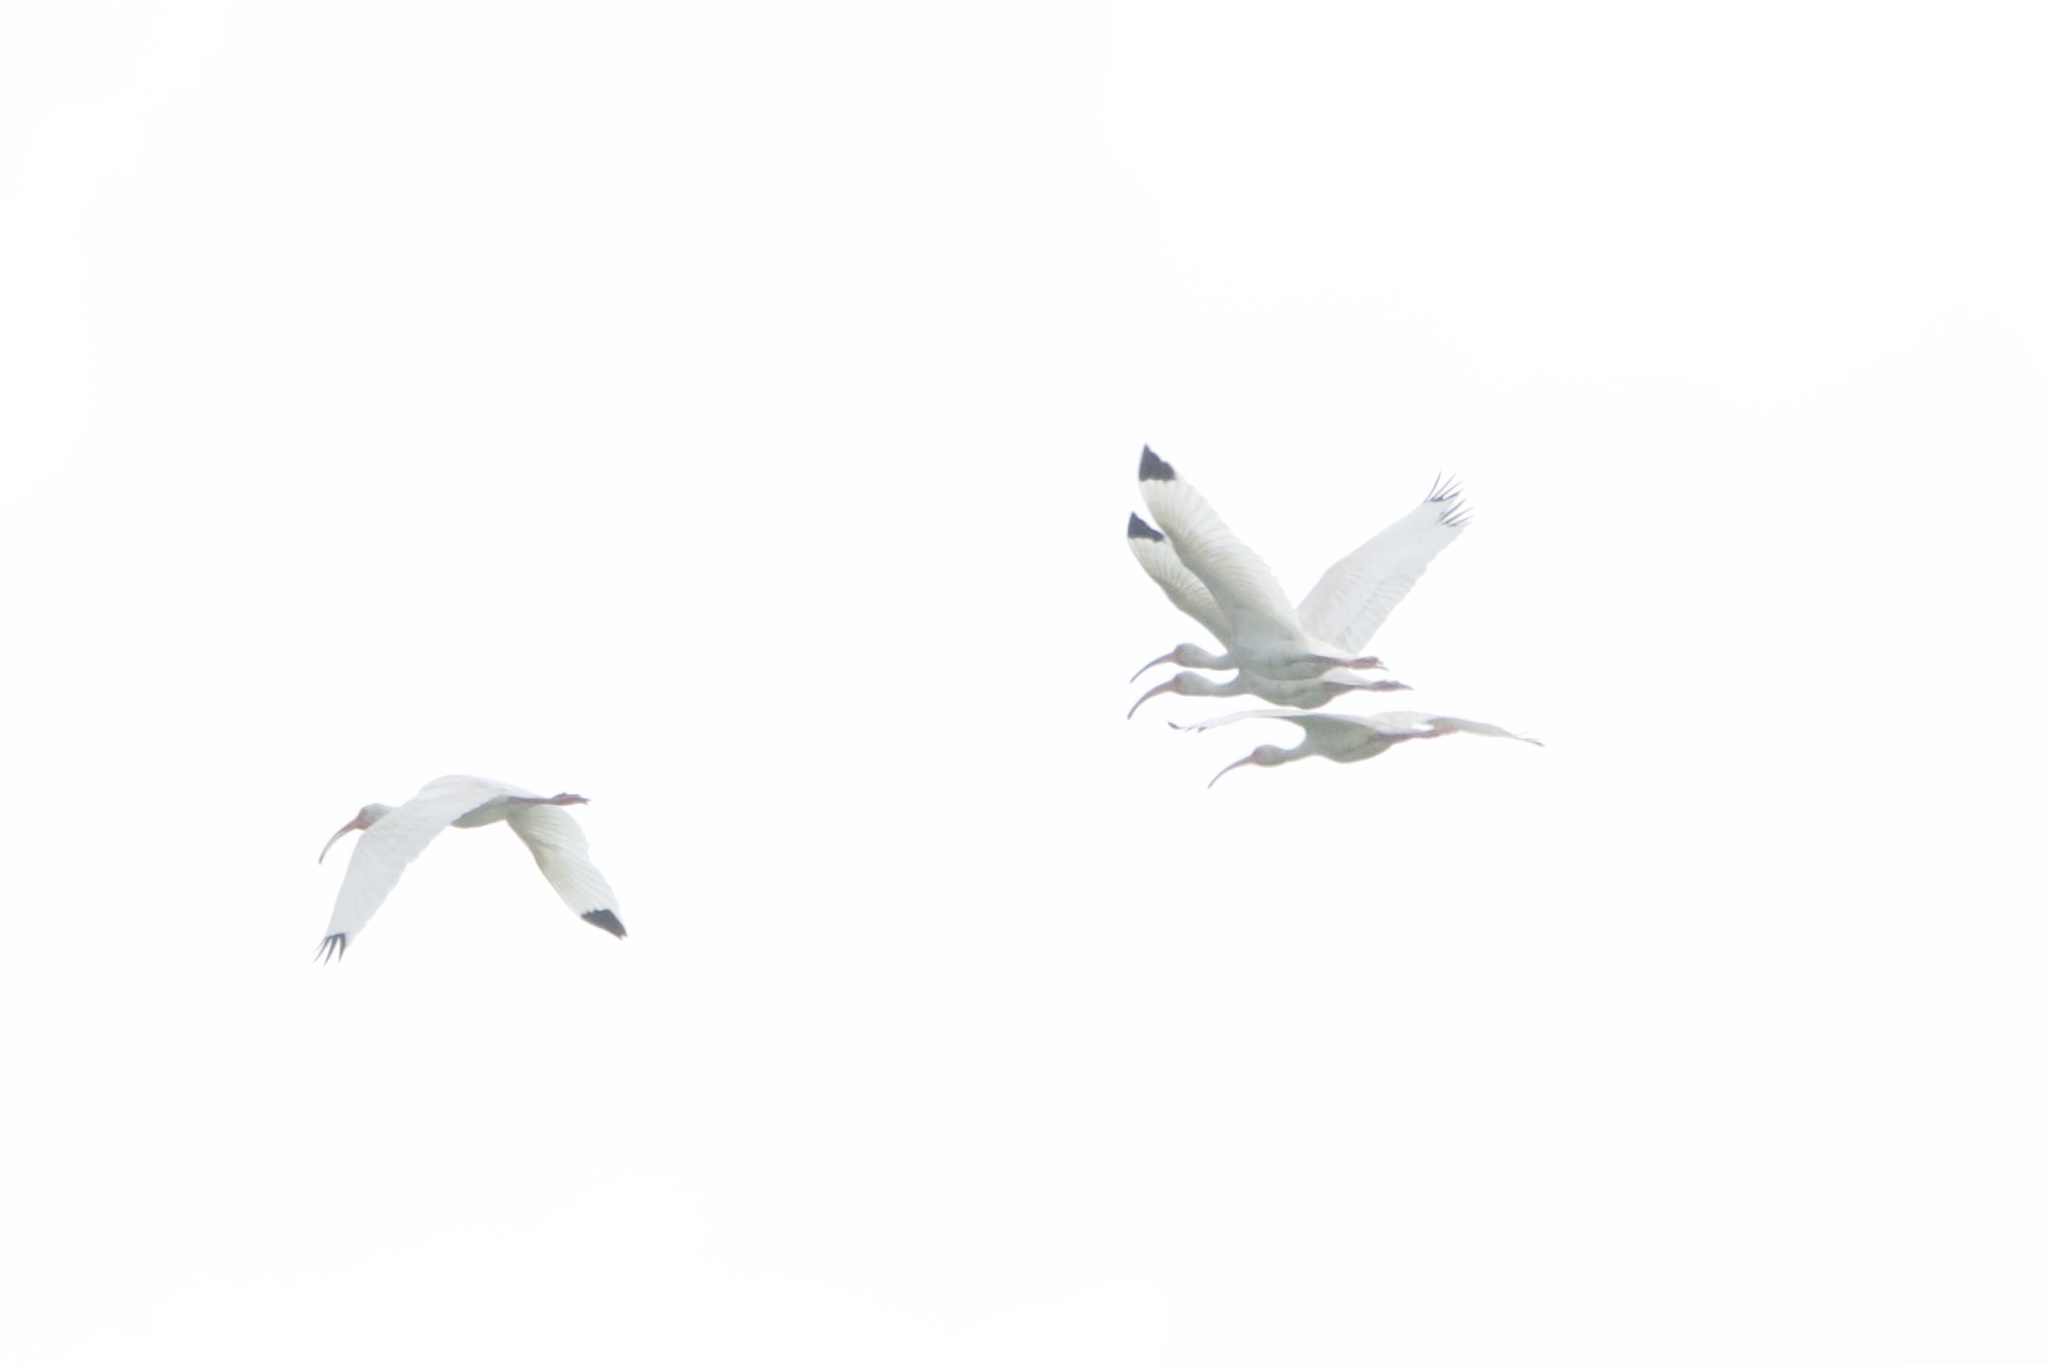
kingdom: Animalia
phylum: Chordata
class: Aves
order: Pelecaniformes
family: Threskiornithidae
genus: Eudocimus
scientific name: Eudocimus albus
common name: White ibis
